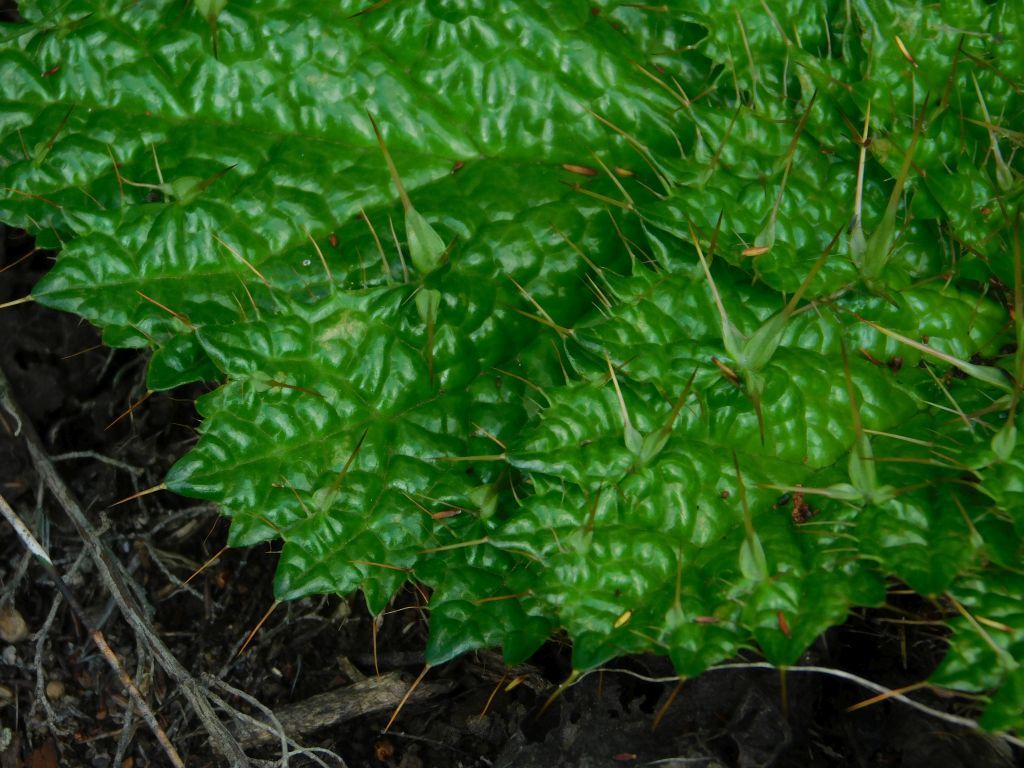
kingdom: Plantae
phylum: Tracheophyta
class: Magnoliopsida
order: Apiales
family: Apiaceae
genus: Arctopus
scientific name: Arctopus echinatus
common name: Platdoring
